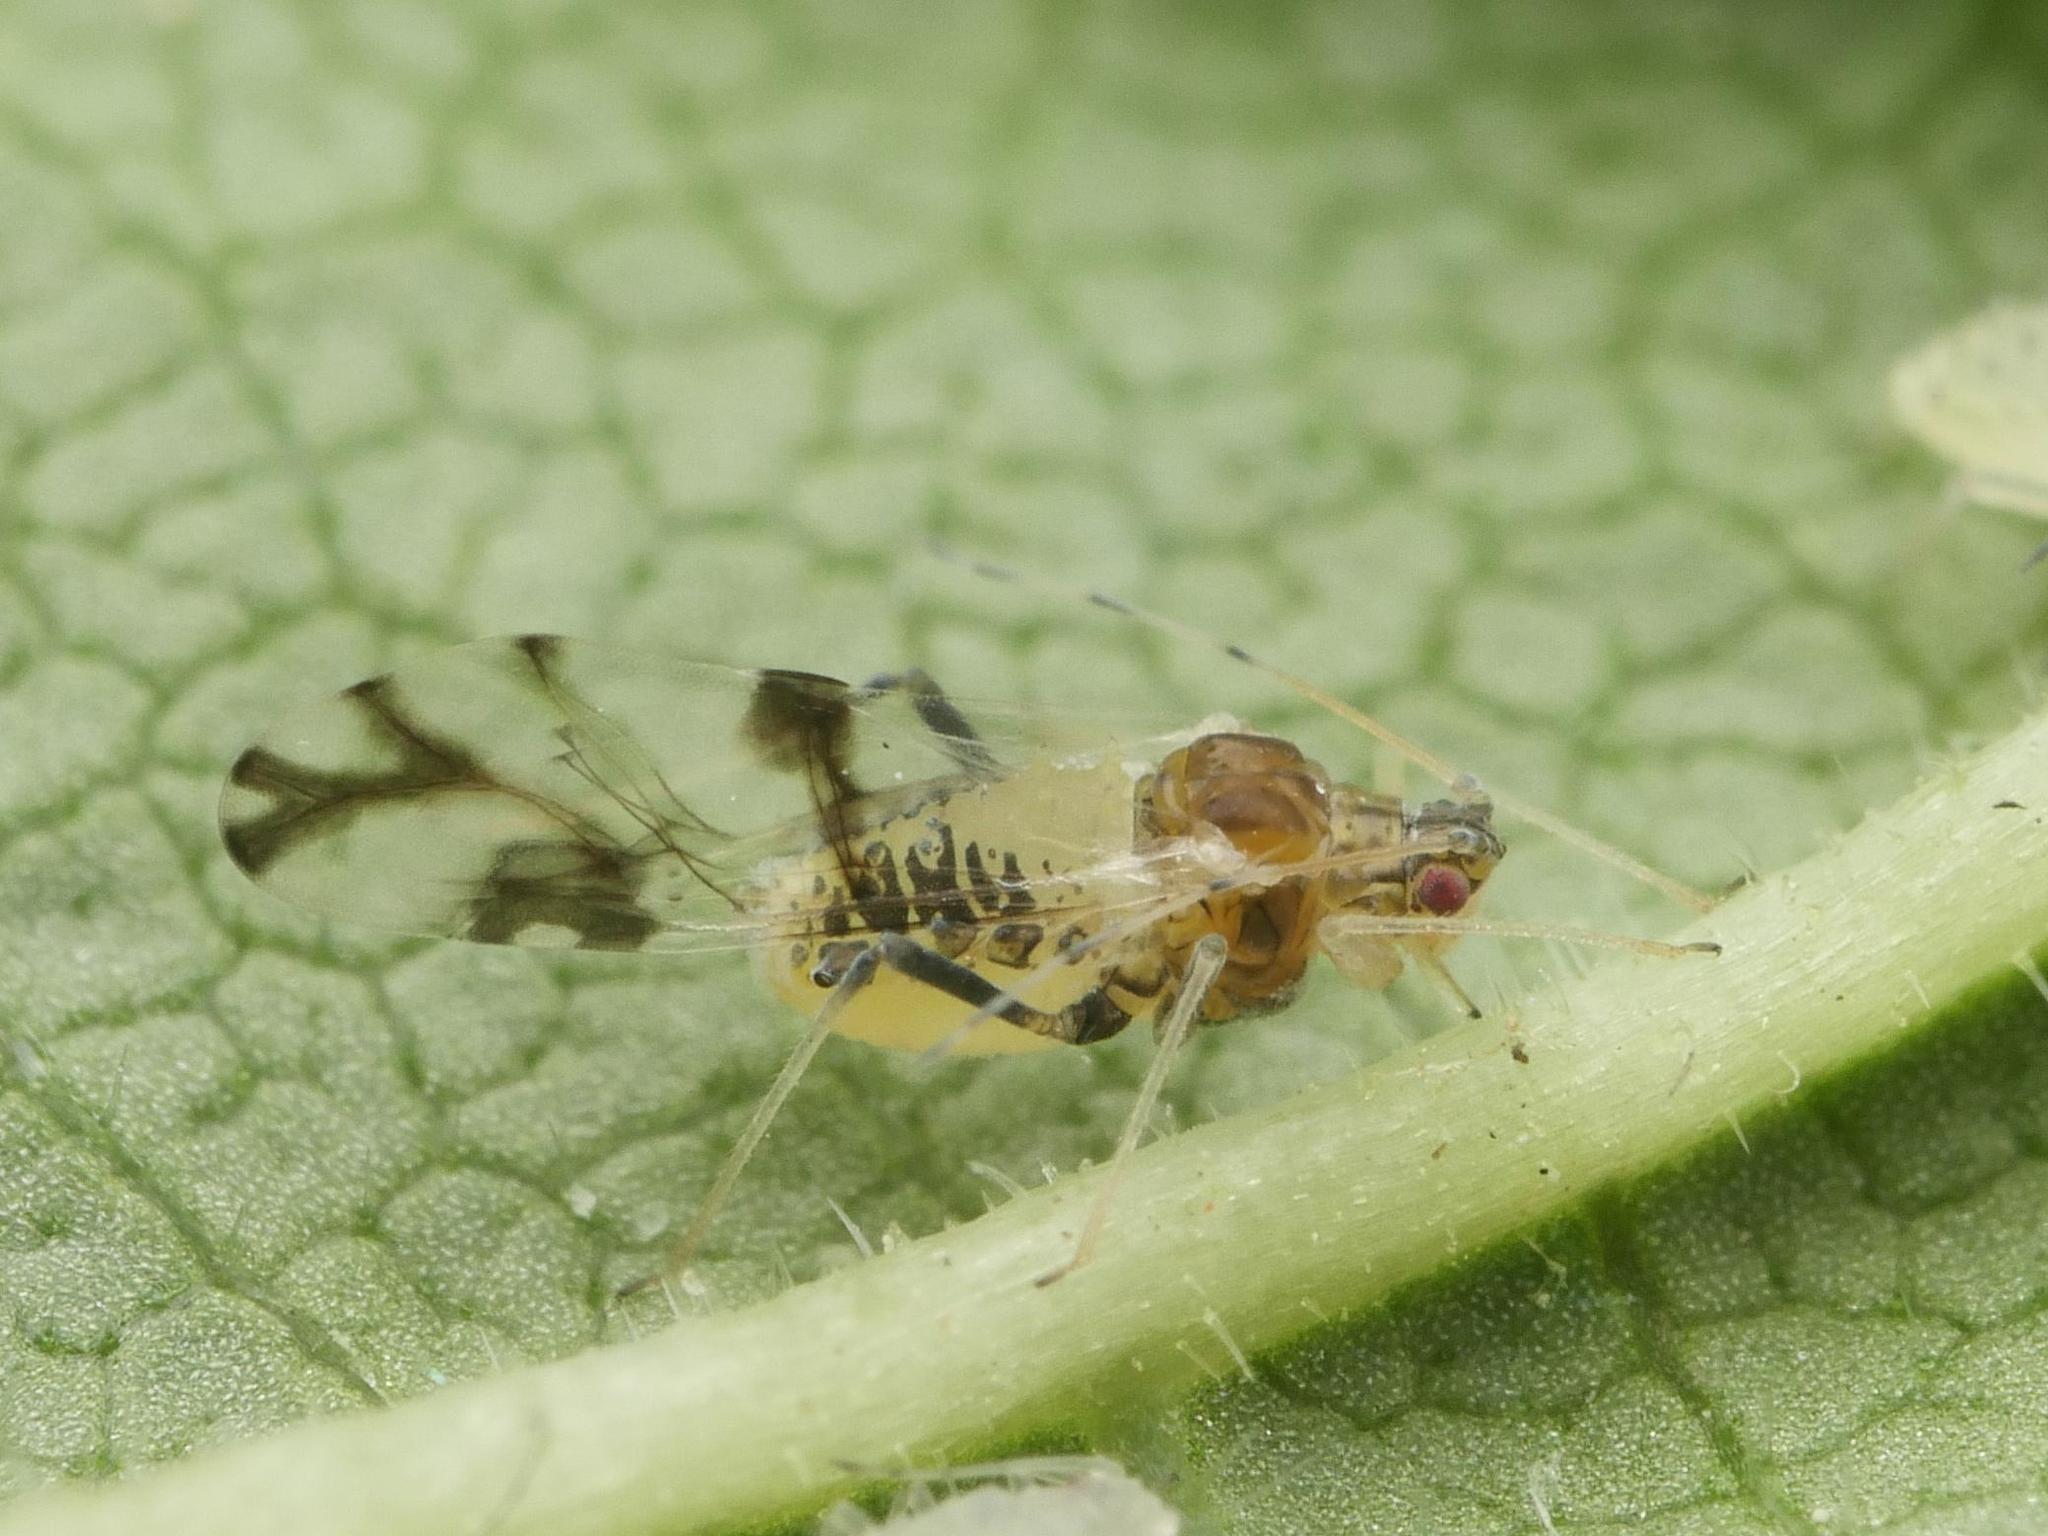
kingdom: Animalia
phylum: Arthropoda
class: Insecta
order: Hemiptera
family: Aphididae
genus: Tinocallis
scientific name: Tinocallis platani
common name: Elm aphid
